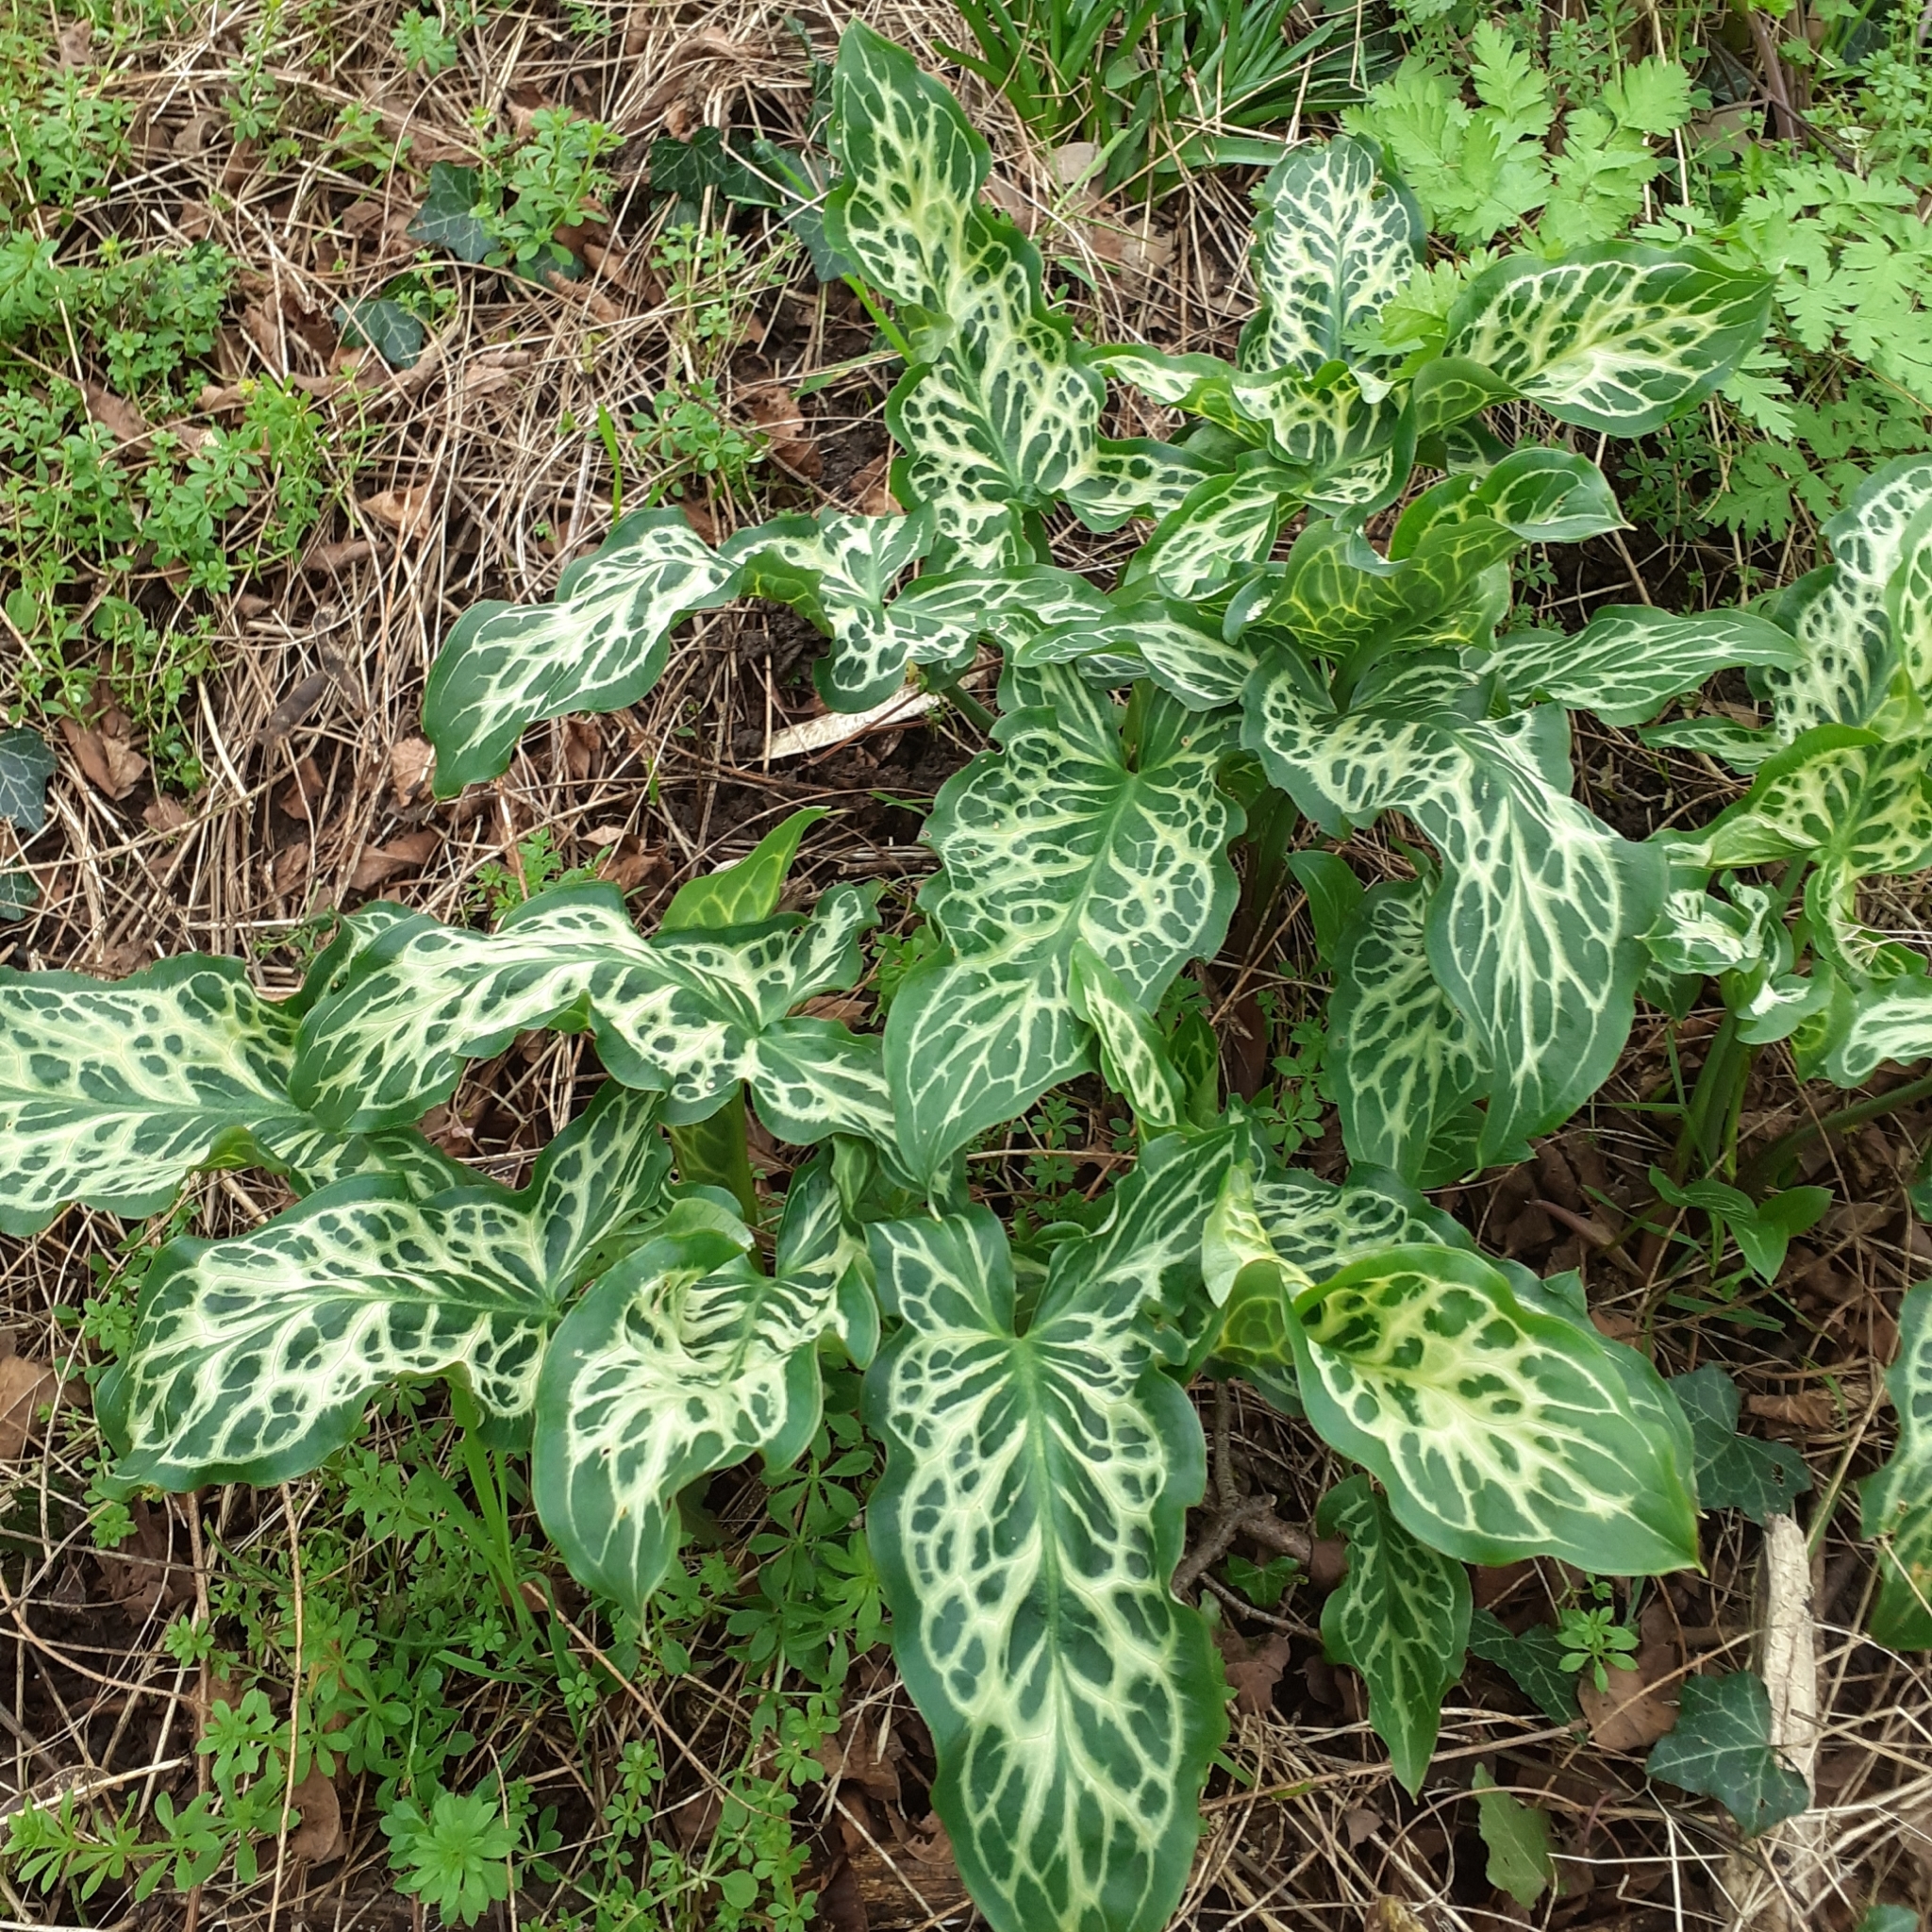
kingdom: Plantae
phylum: Tracheophyta
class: Liliopsida
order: Alismatales
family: Araceae
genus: Arum
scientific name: Arum italicum
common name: Italian lords-and-ladies
